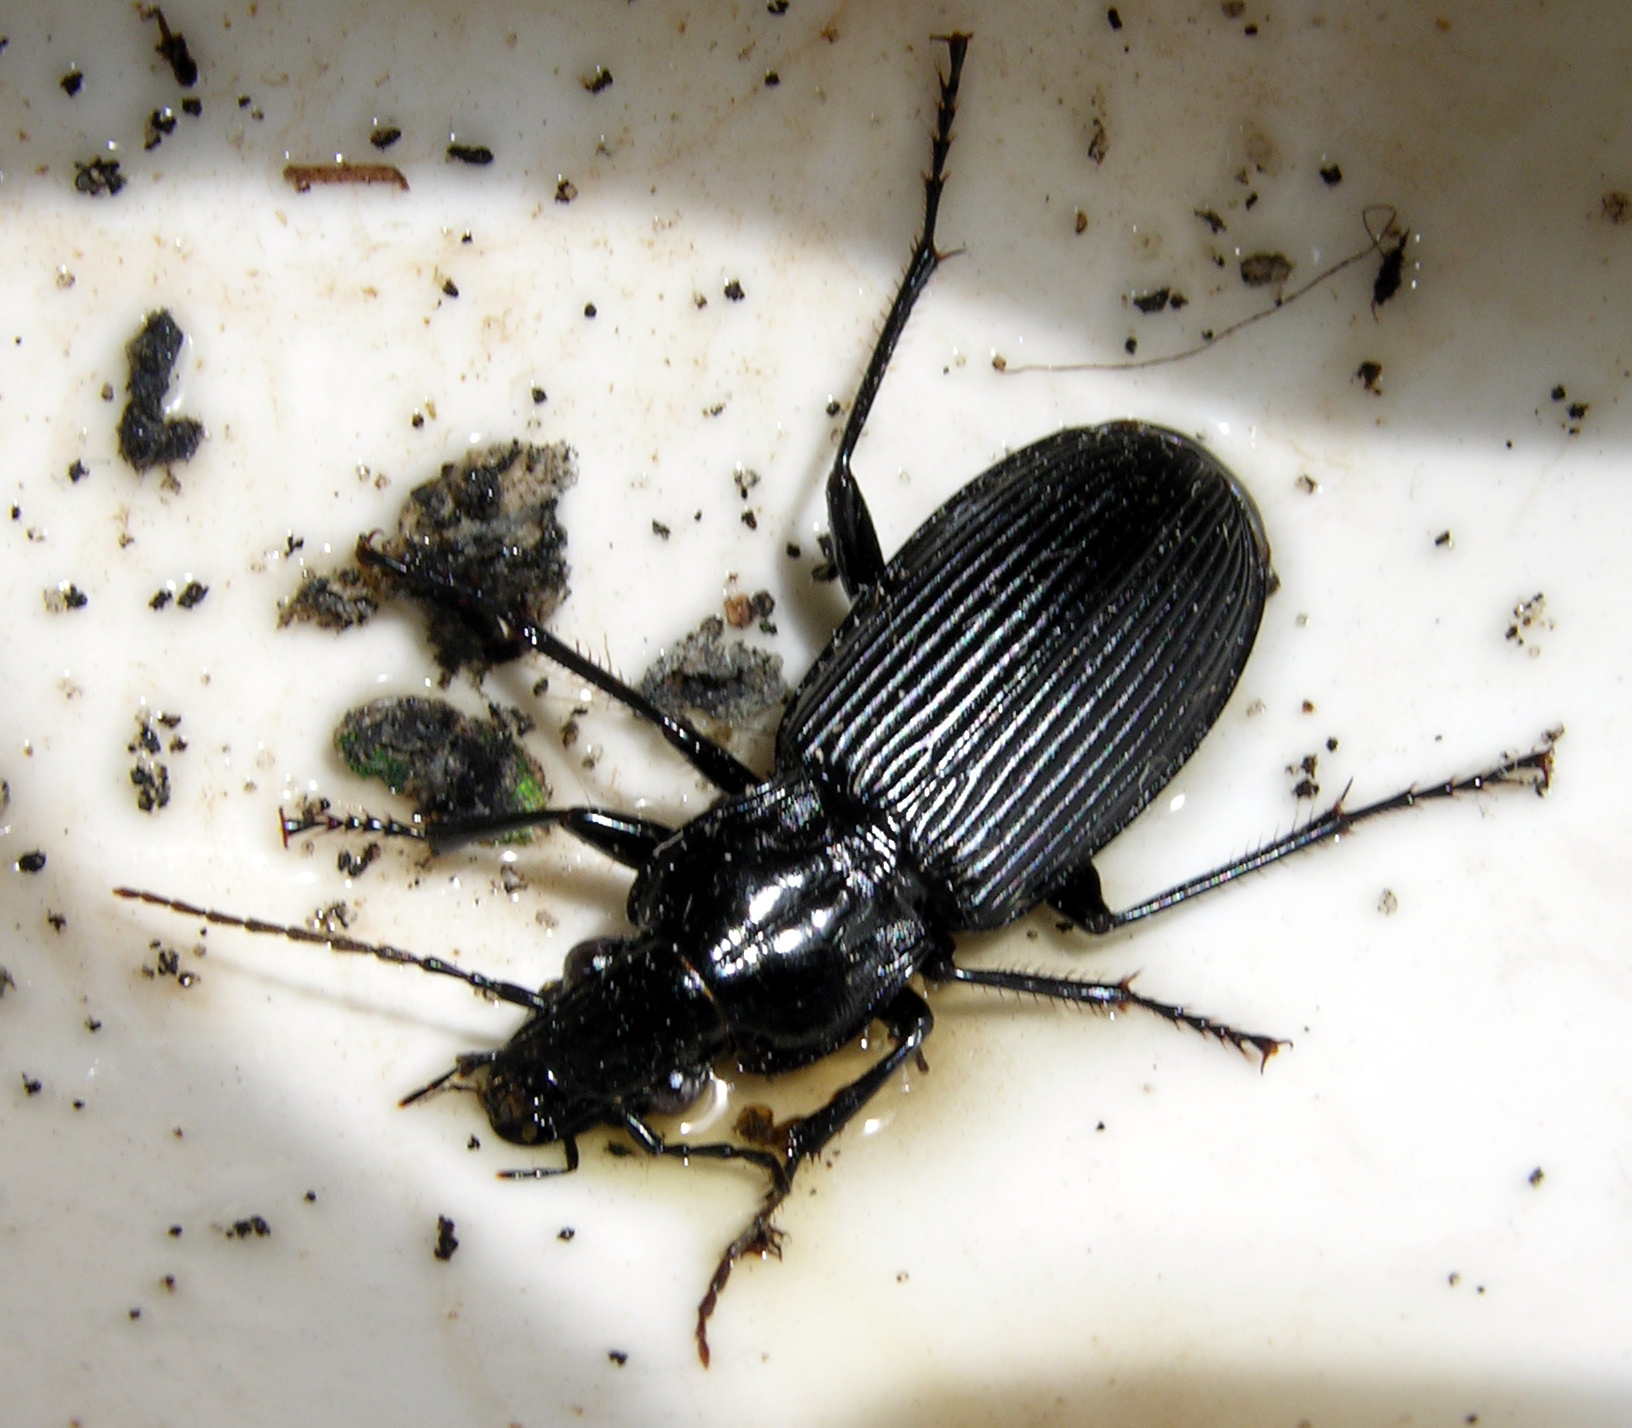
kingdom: Animalia
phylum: Arthropoda
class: Insecta
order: Coleoptera
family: Carabidae
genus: Pterostichus
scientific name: Pterostichus niger
